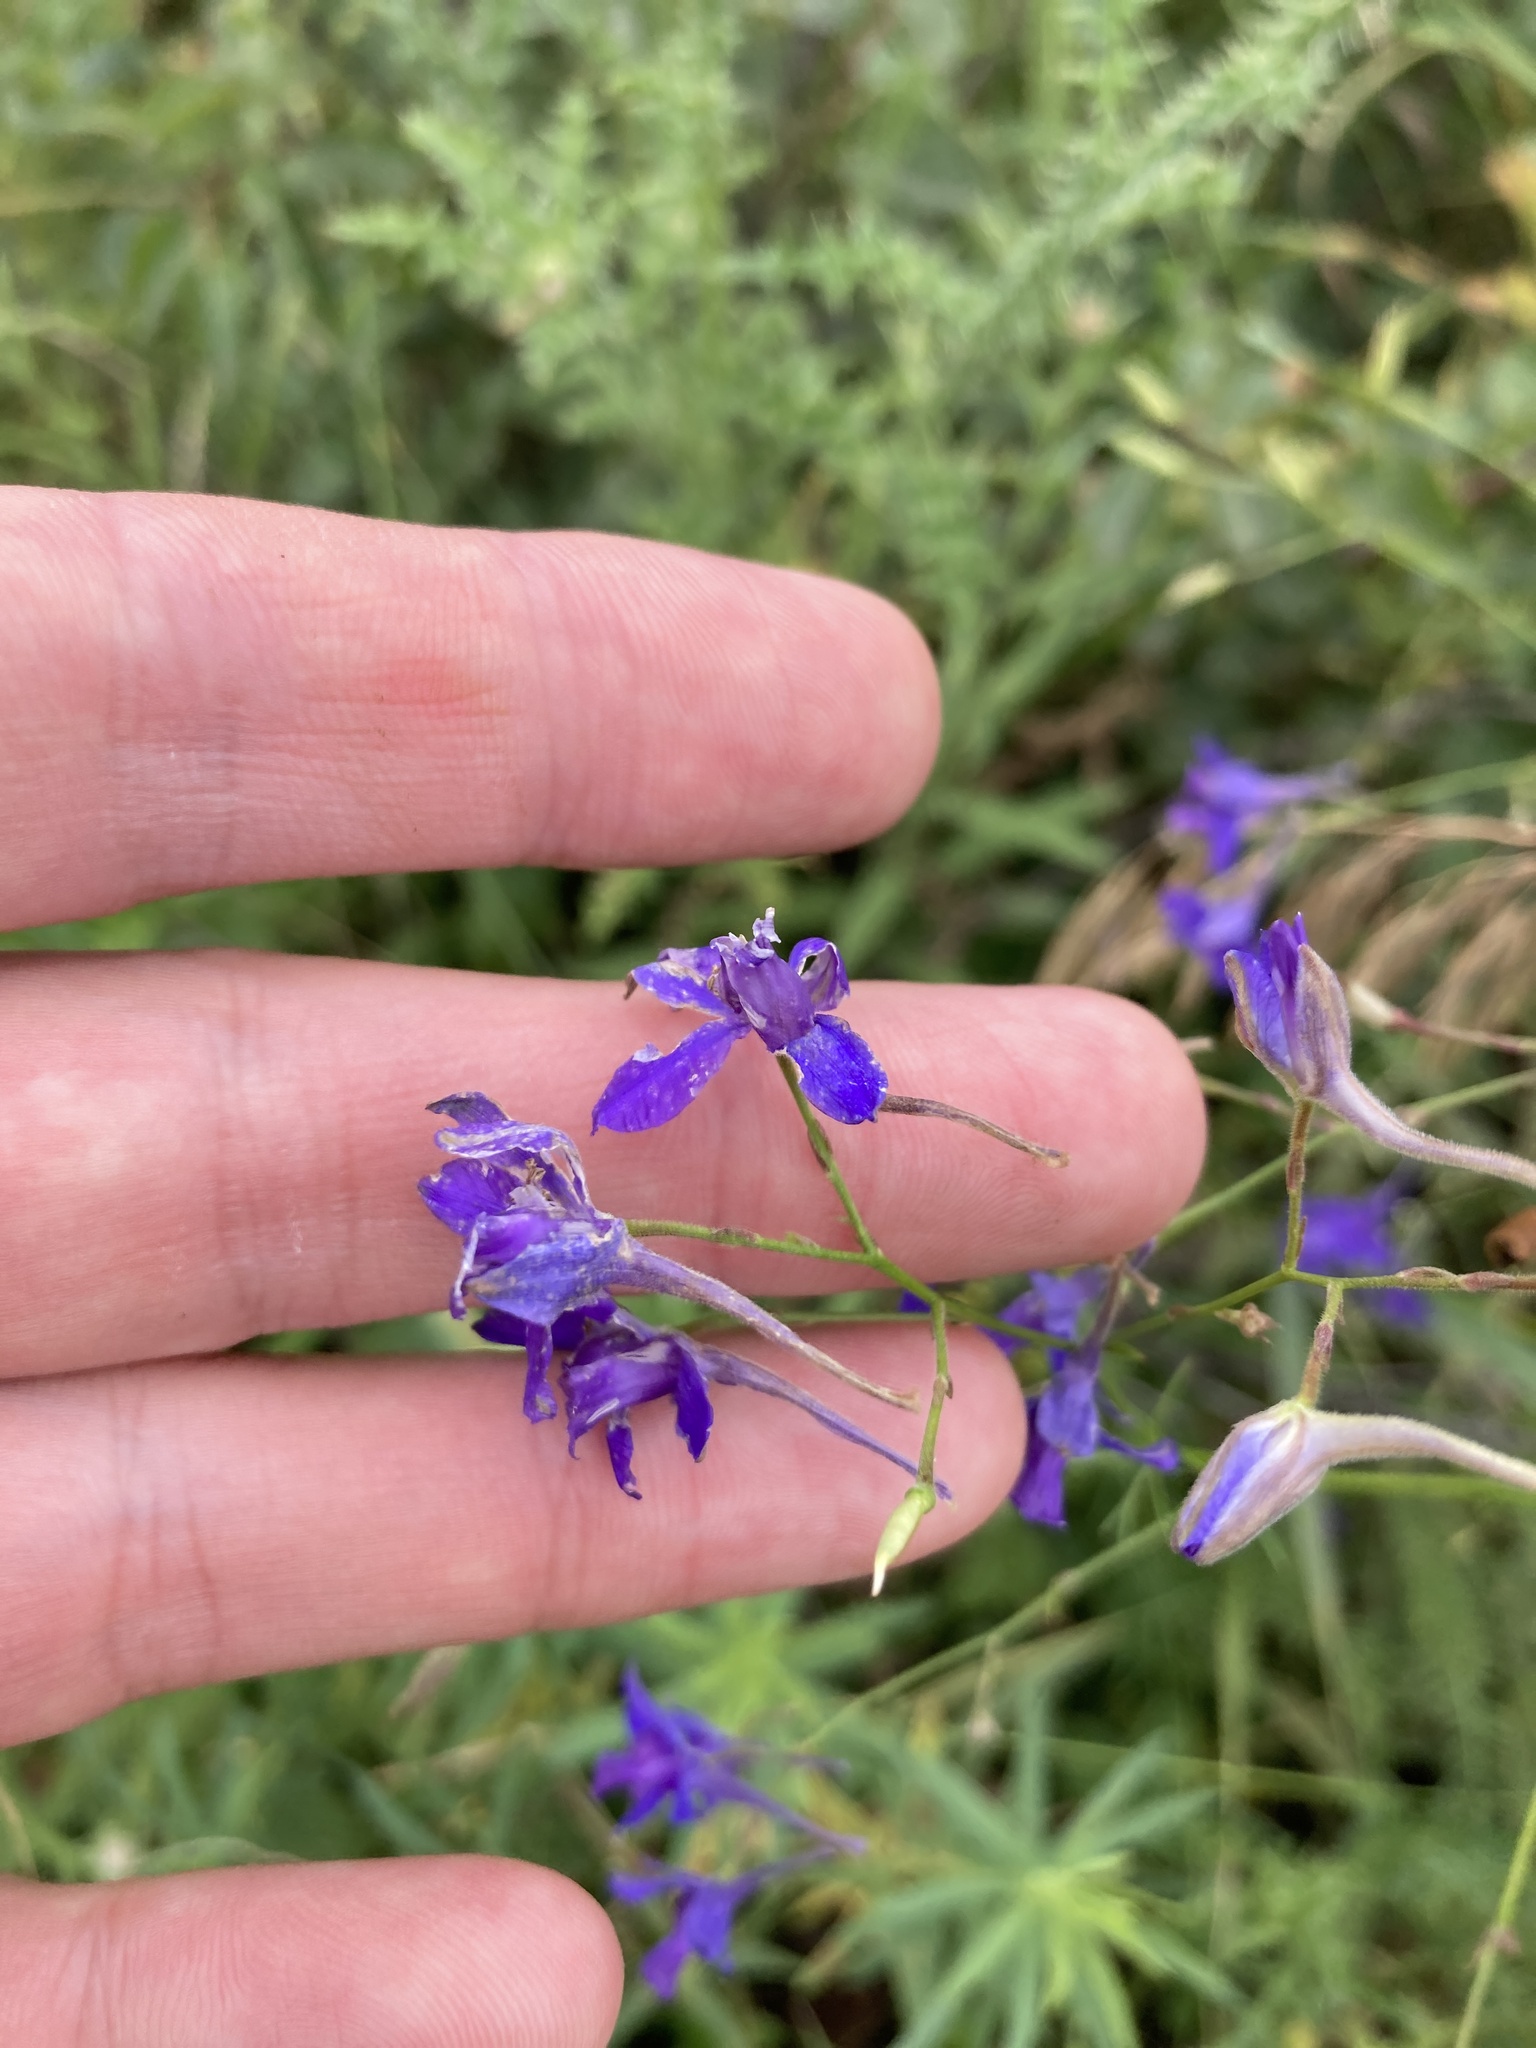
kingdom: Plantae
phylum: Tracheophyta
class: Magnoliopsida
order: Ranunculales
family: Ranunculaceae
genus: Delphinium
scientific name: Delphinium consolida
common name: Branching larkspur
